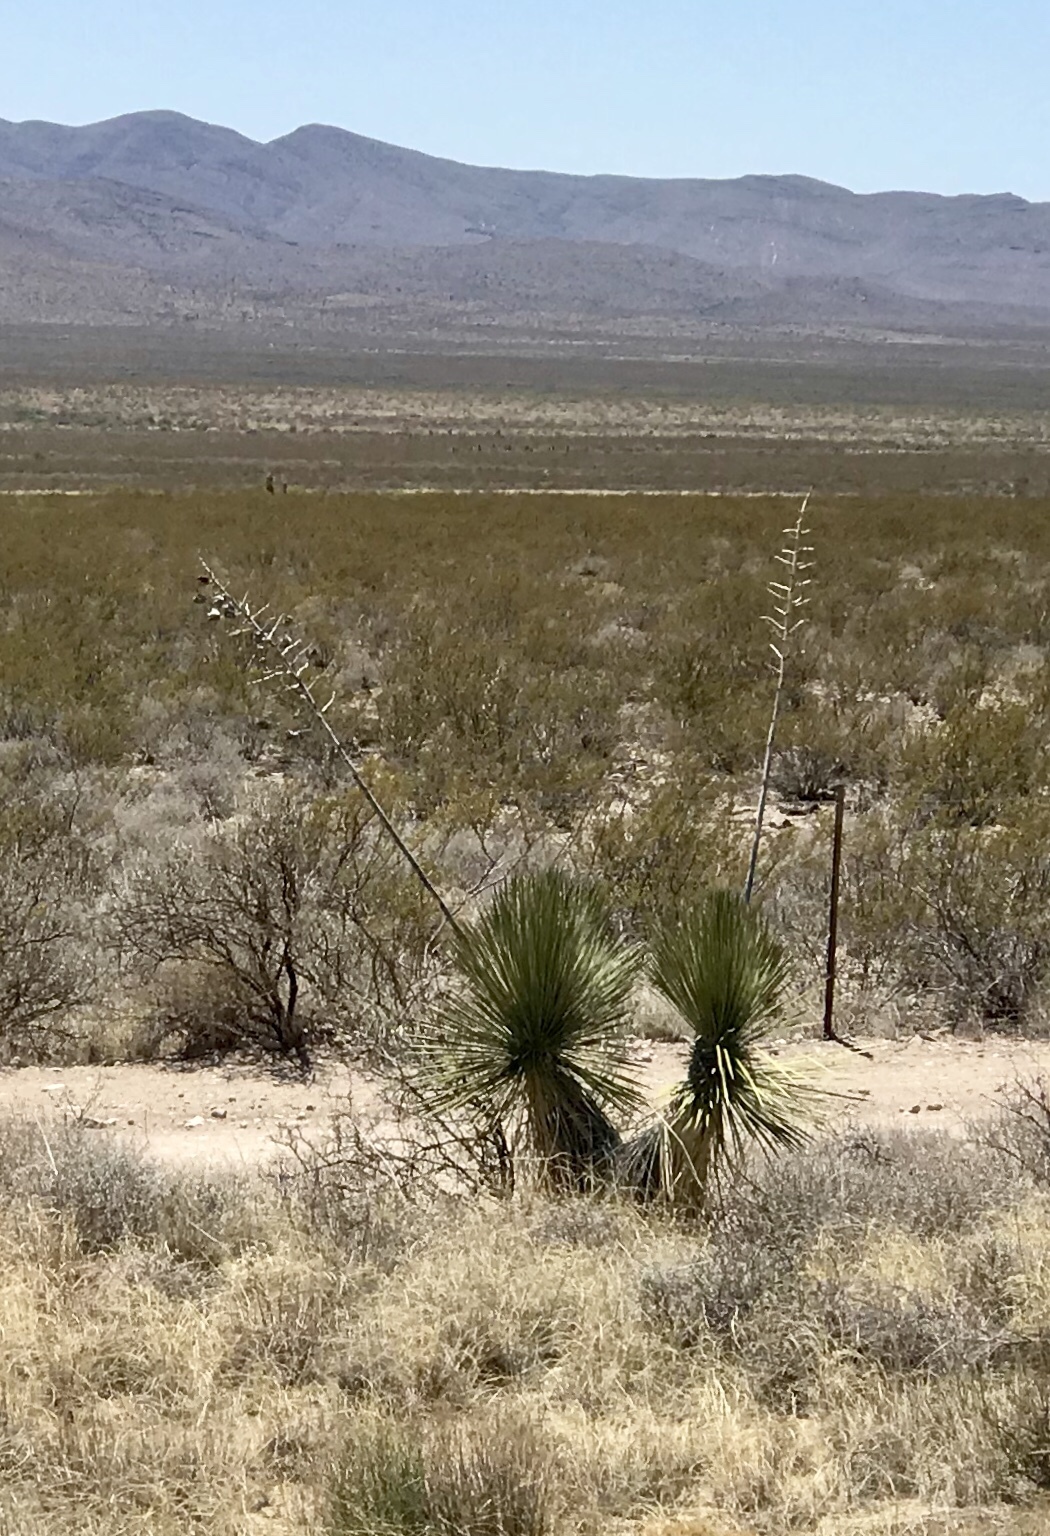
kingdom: Plantae
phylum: Tracheophyta
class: Liliopsida
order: Asparagales
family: Asparagaceae
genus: Yucca
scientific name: Yucca elata
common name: Palmella
